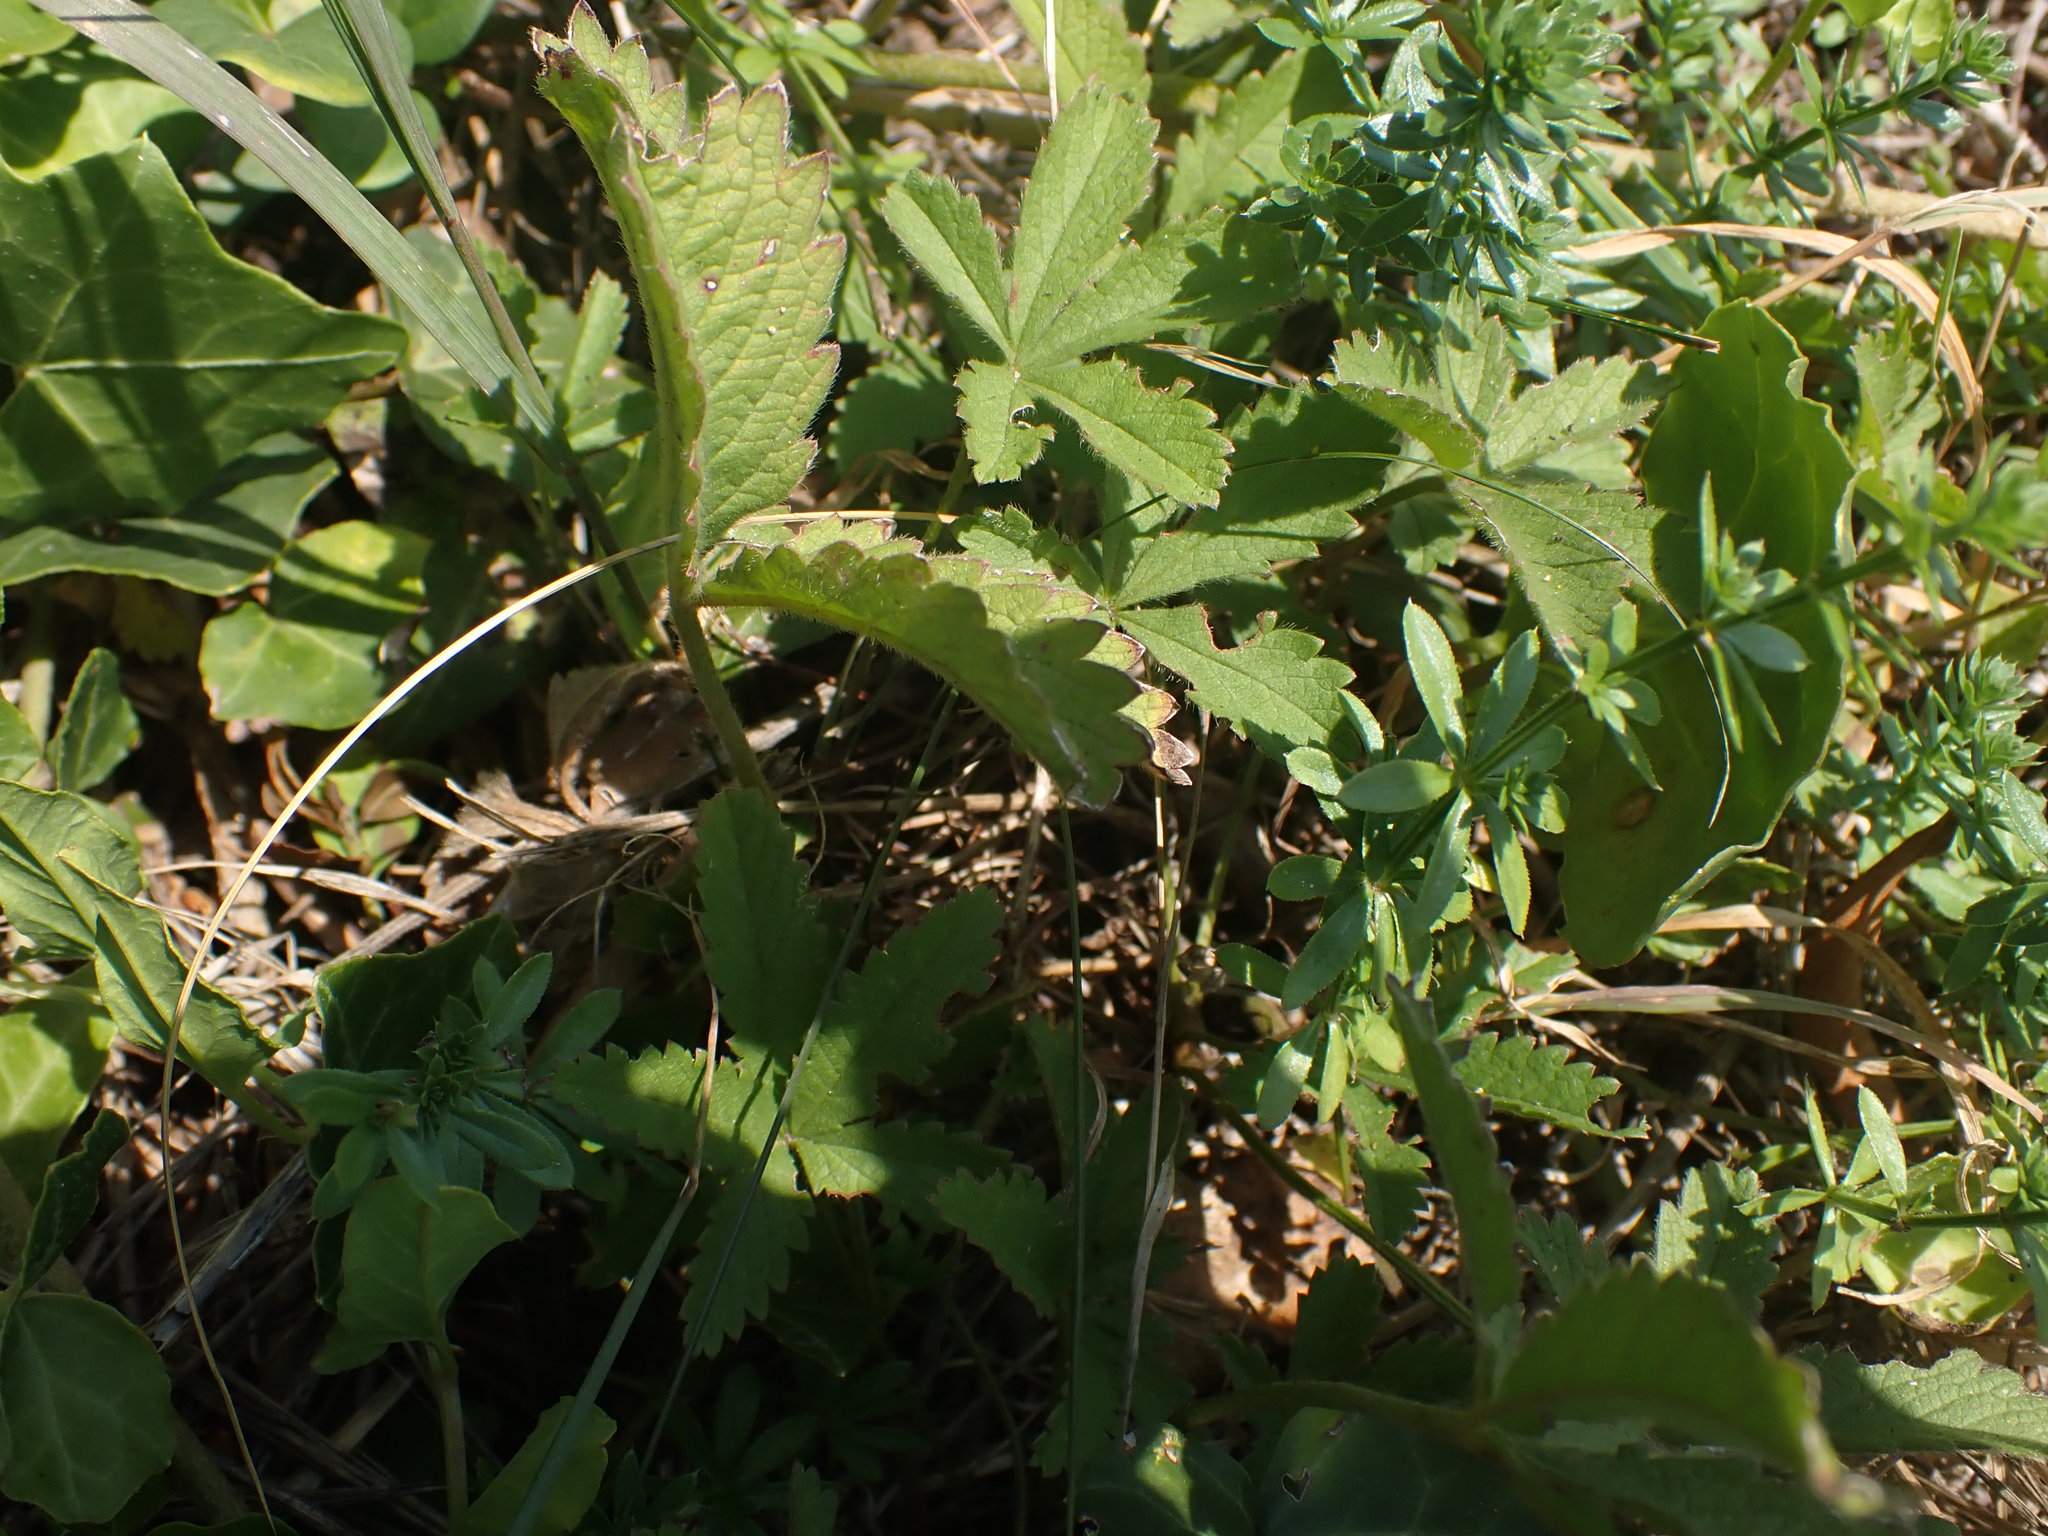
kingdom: Plantae
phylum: Tracheophyta
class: Magnoliopsida
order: Rosales
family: Rosaceae
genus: Potentilla
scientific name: Potentilla reptans
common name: Creeping cinquefoil
